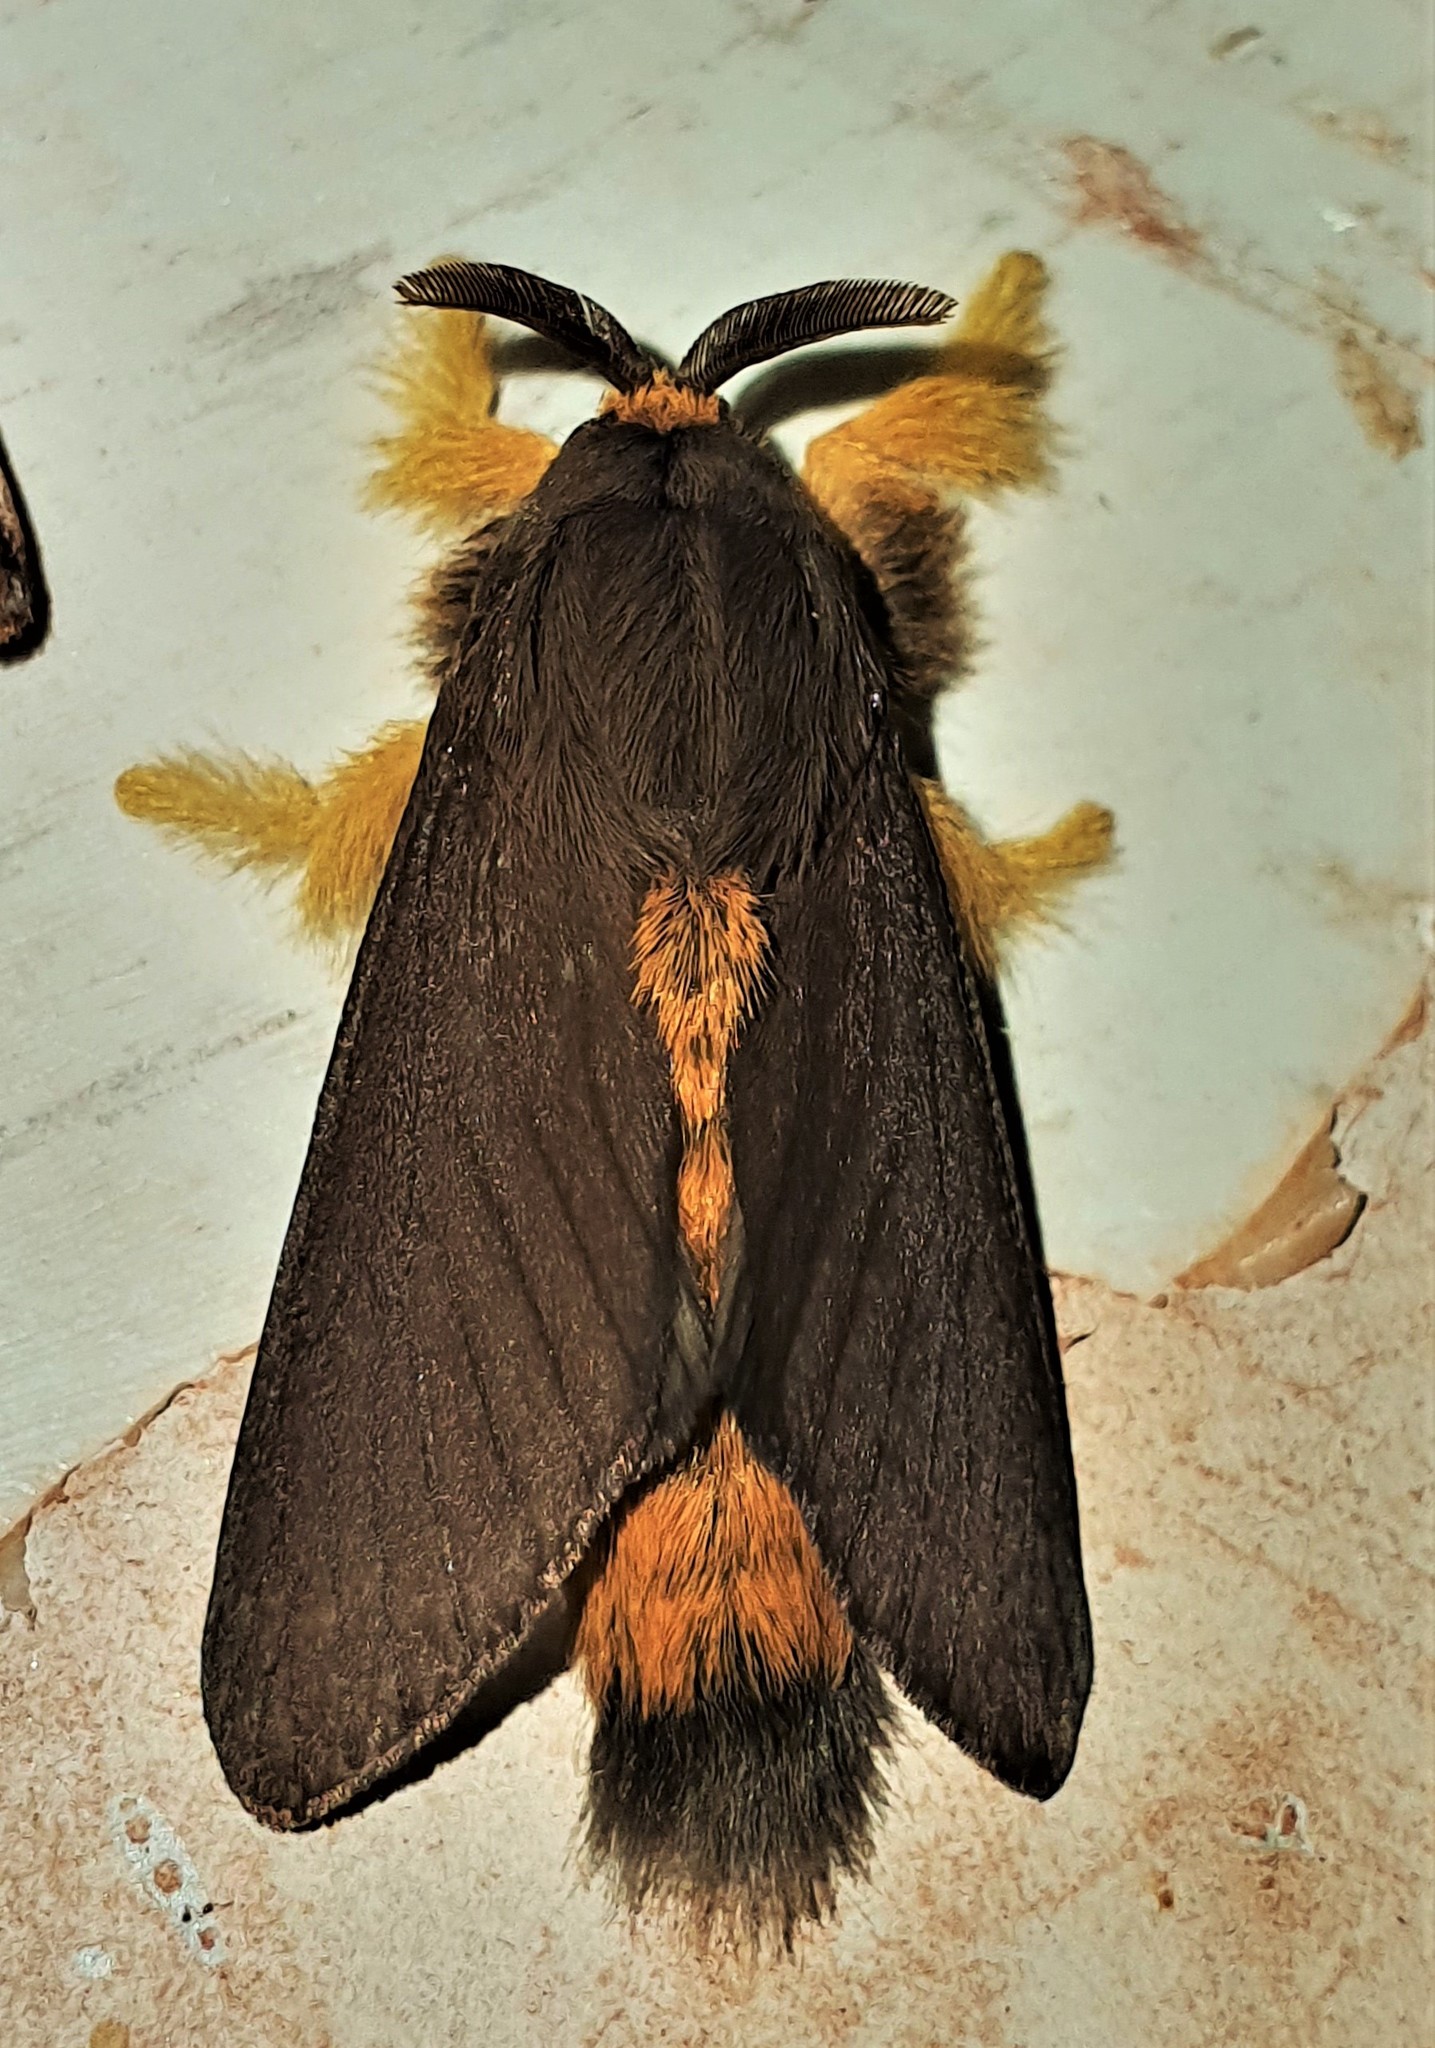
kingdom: Animalia
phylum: Arthropoda
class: Insecta
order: Lepidoptera
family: Megalopygidae
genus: Thoscora
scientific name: Thoscora omayena
